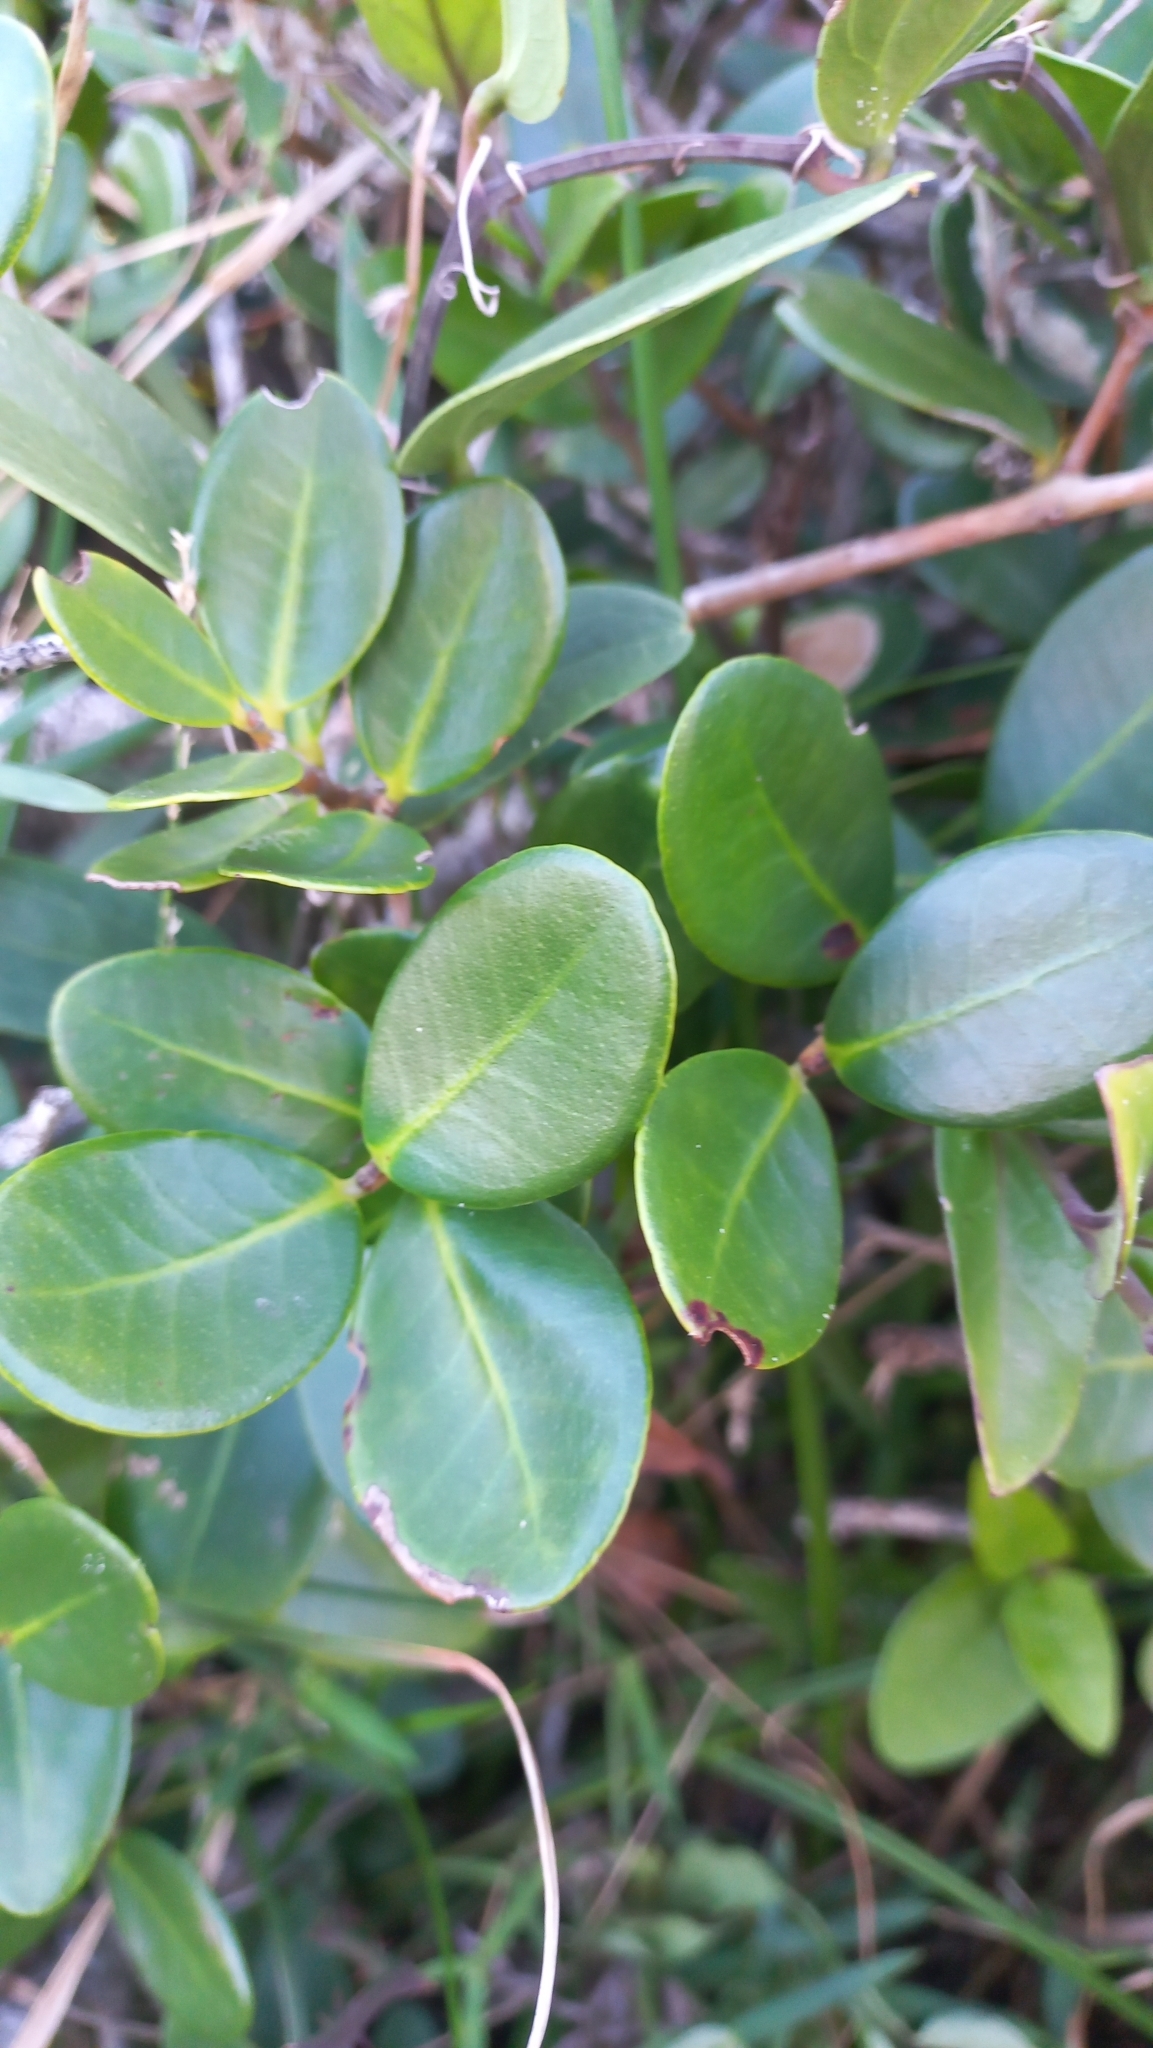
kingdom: Plantae
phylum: Tracheophyta
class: Magnoliopsida
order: Myrtales
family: Myrtaceae
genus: Eugenia
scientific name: Eugenia catharinae
